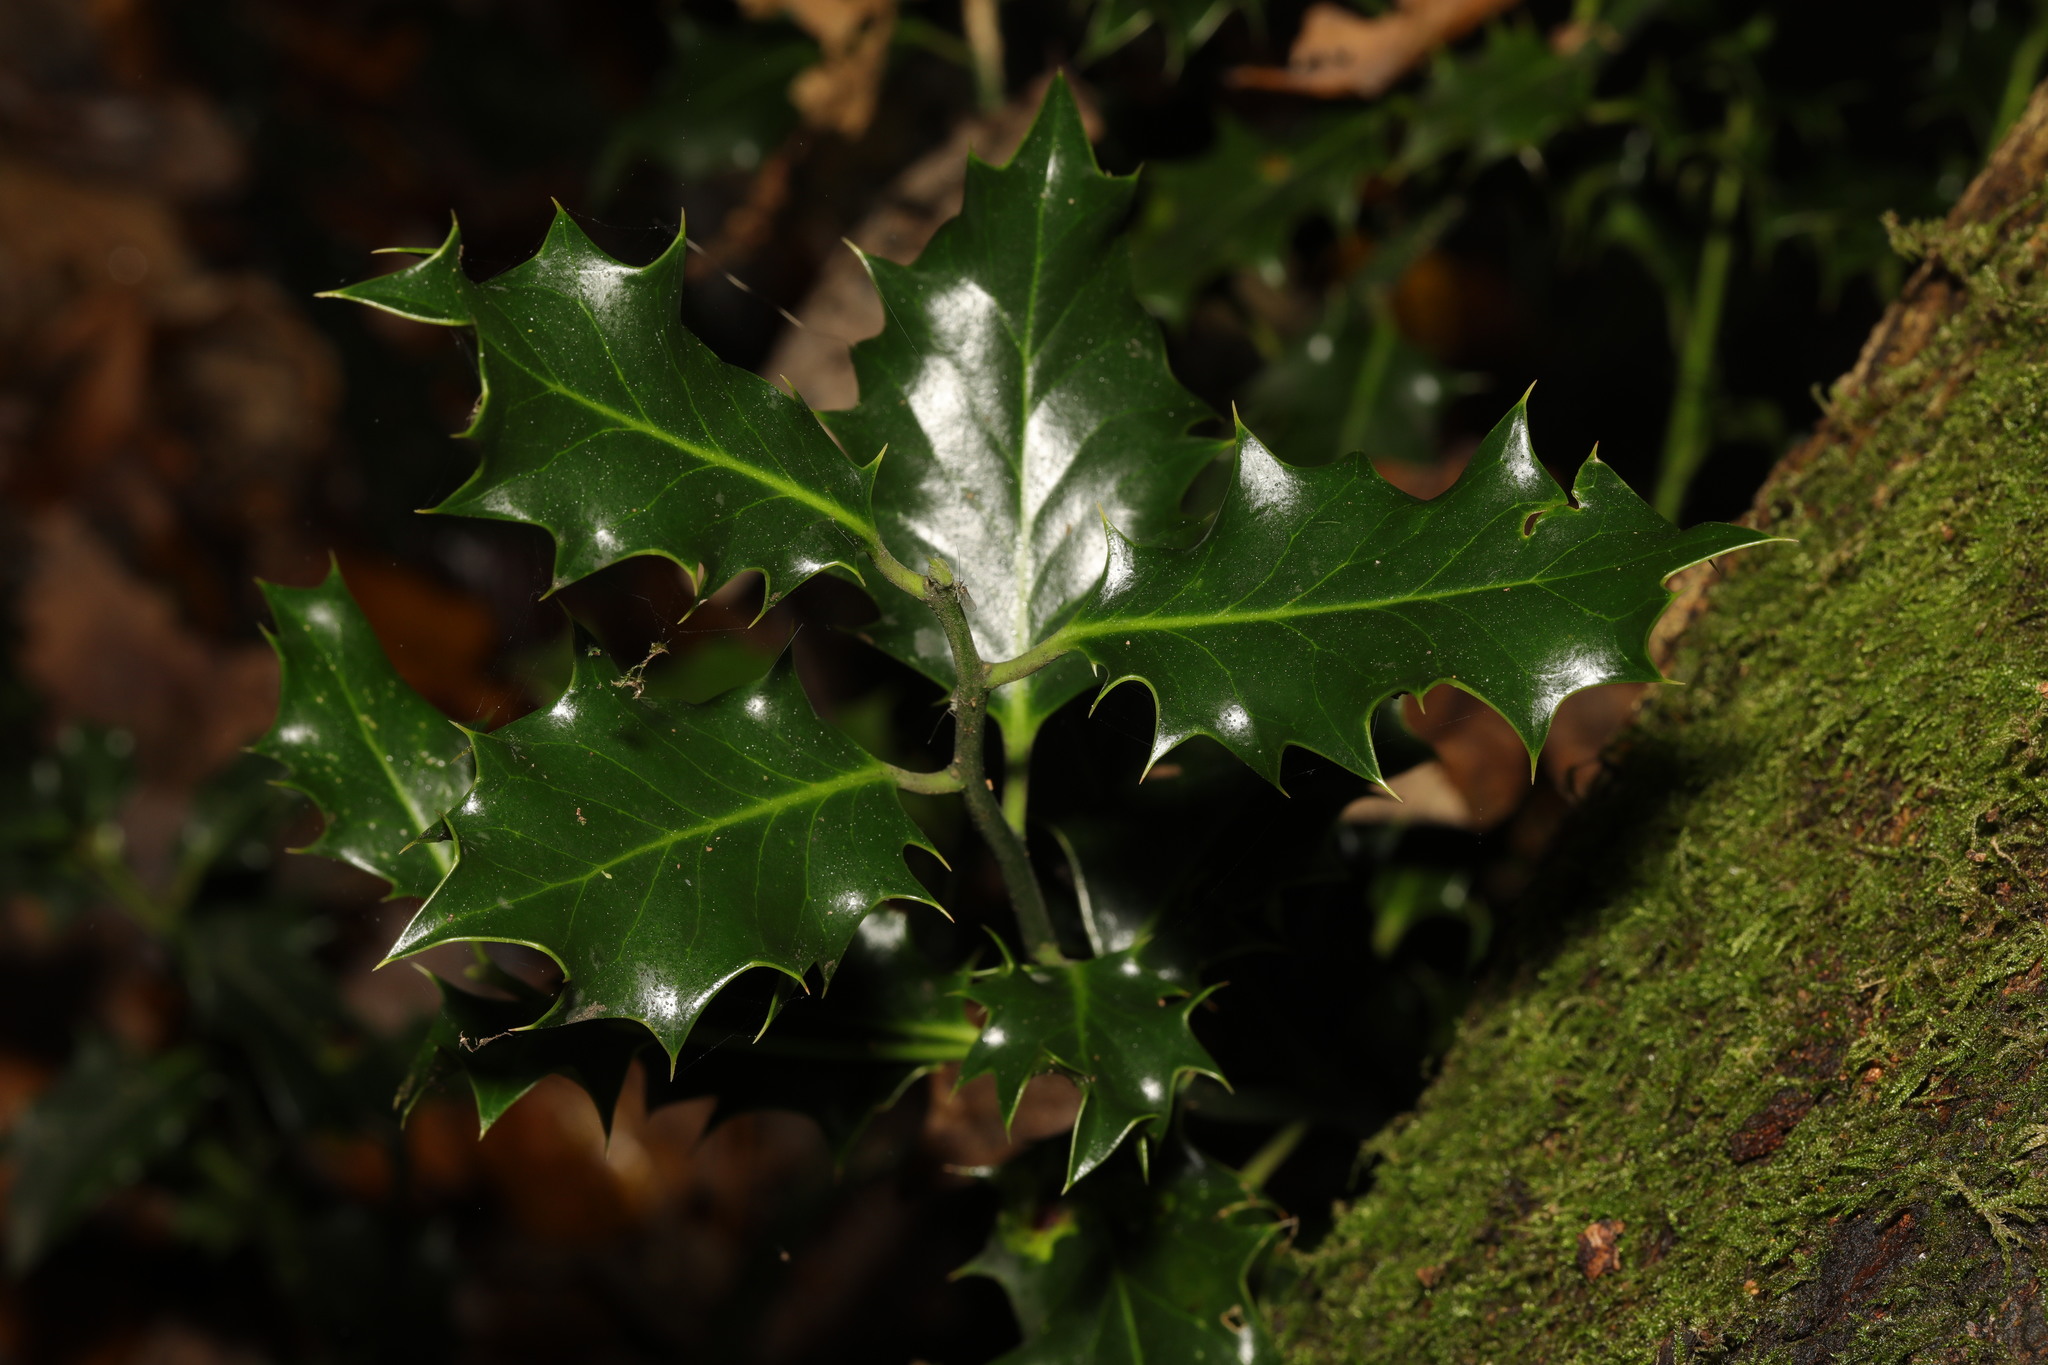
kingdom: Plantae
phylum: Tracheophyta
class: Magnoliopsida
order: Aquifoliales
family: Aquifoliaceae
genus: Ilex
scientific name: Ilex aquifolium
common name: English holly
